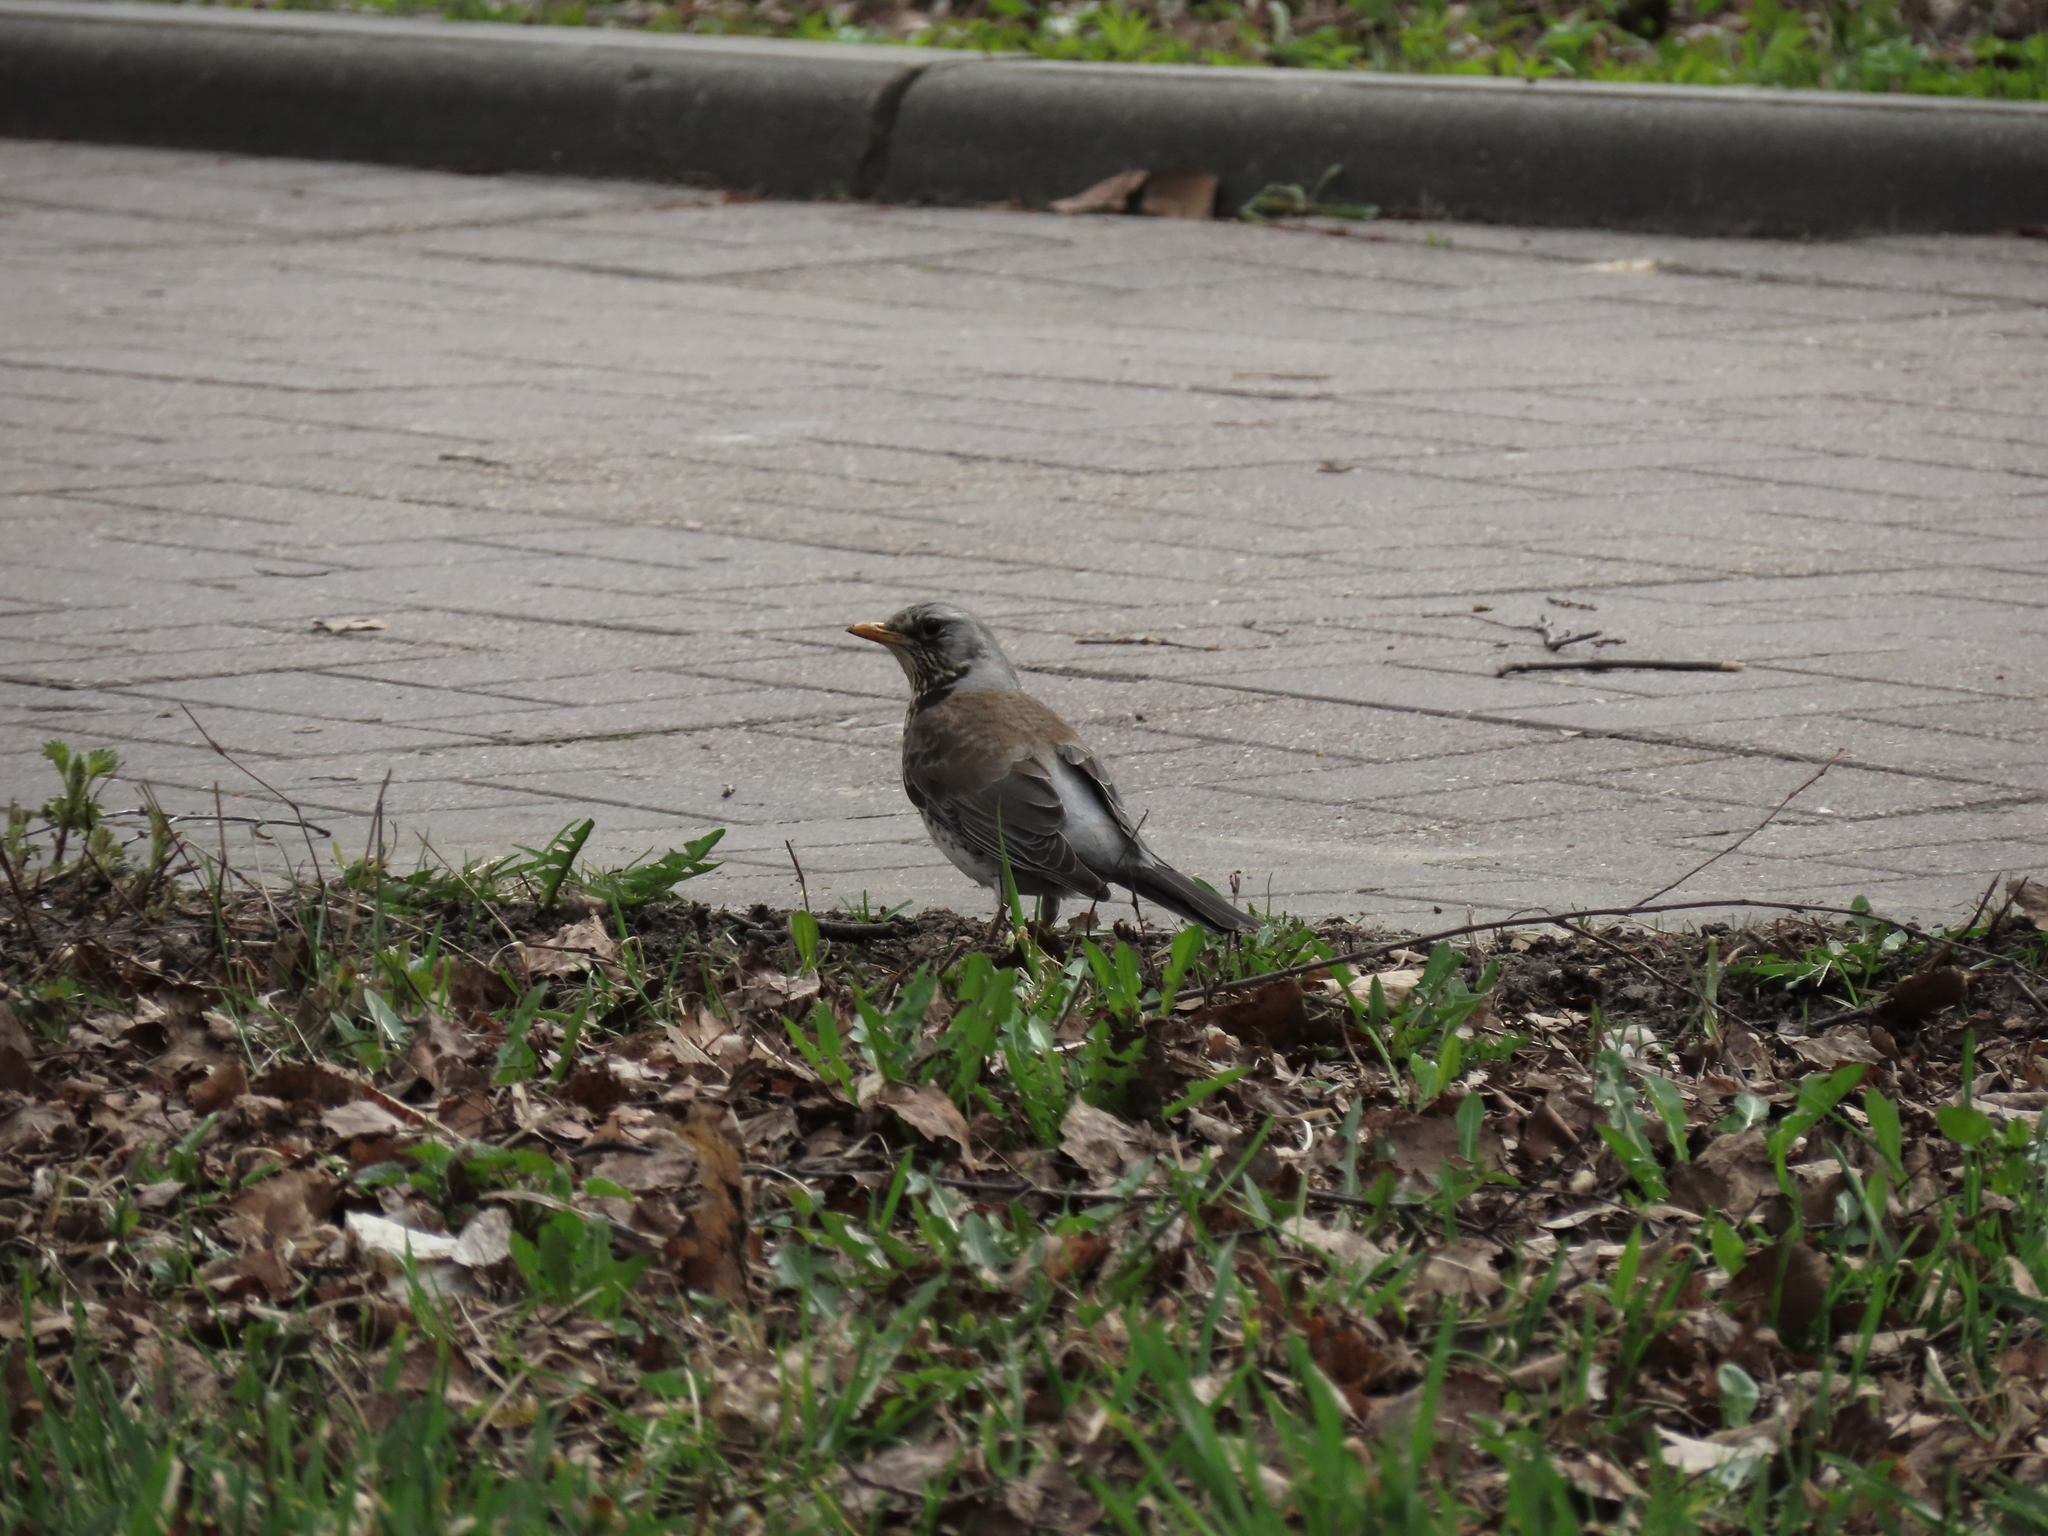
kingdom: Animalia
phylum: Chordata
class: Aves
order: Passeriformes
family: Turdidae
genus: Turdus
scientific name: Turdus pilaris
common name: Fieldfare
